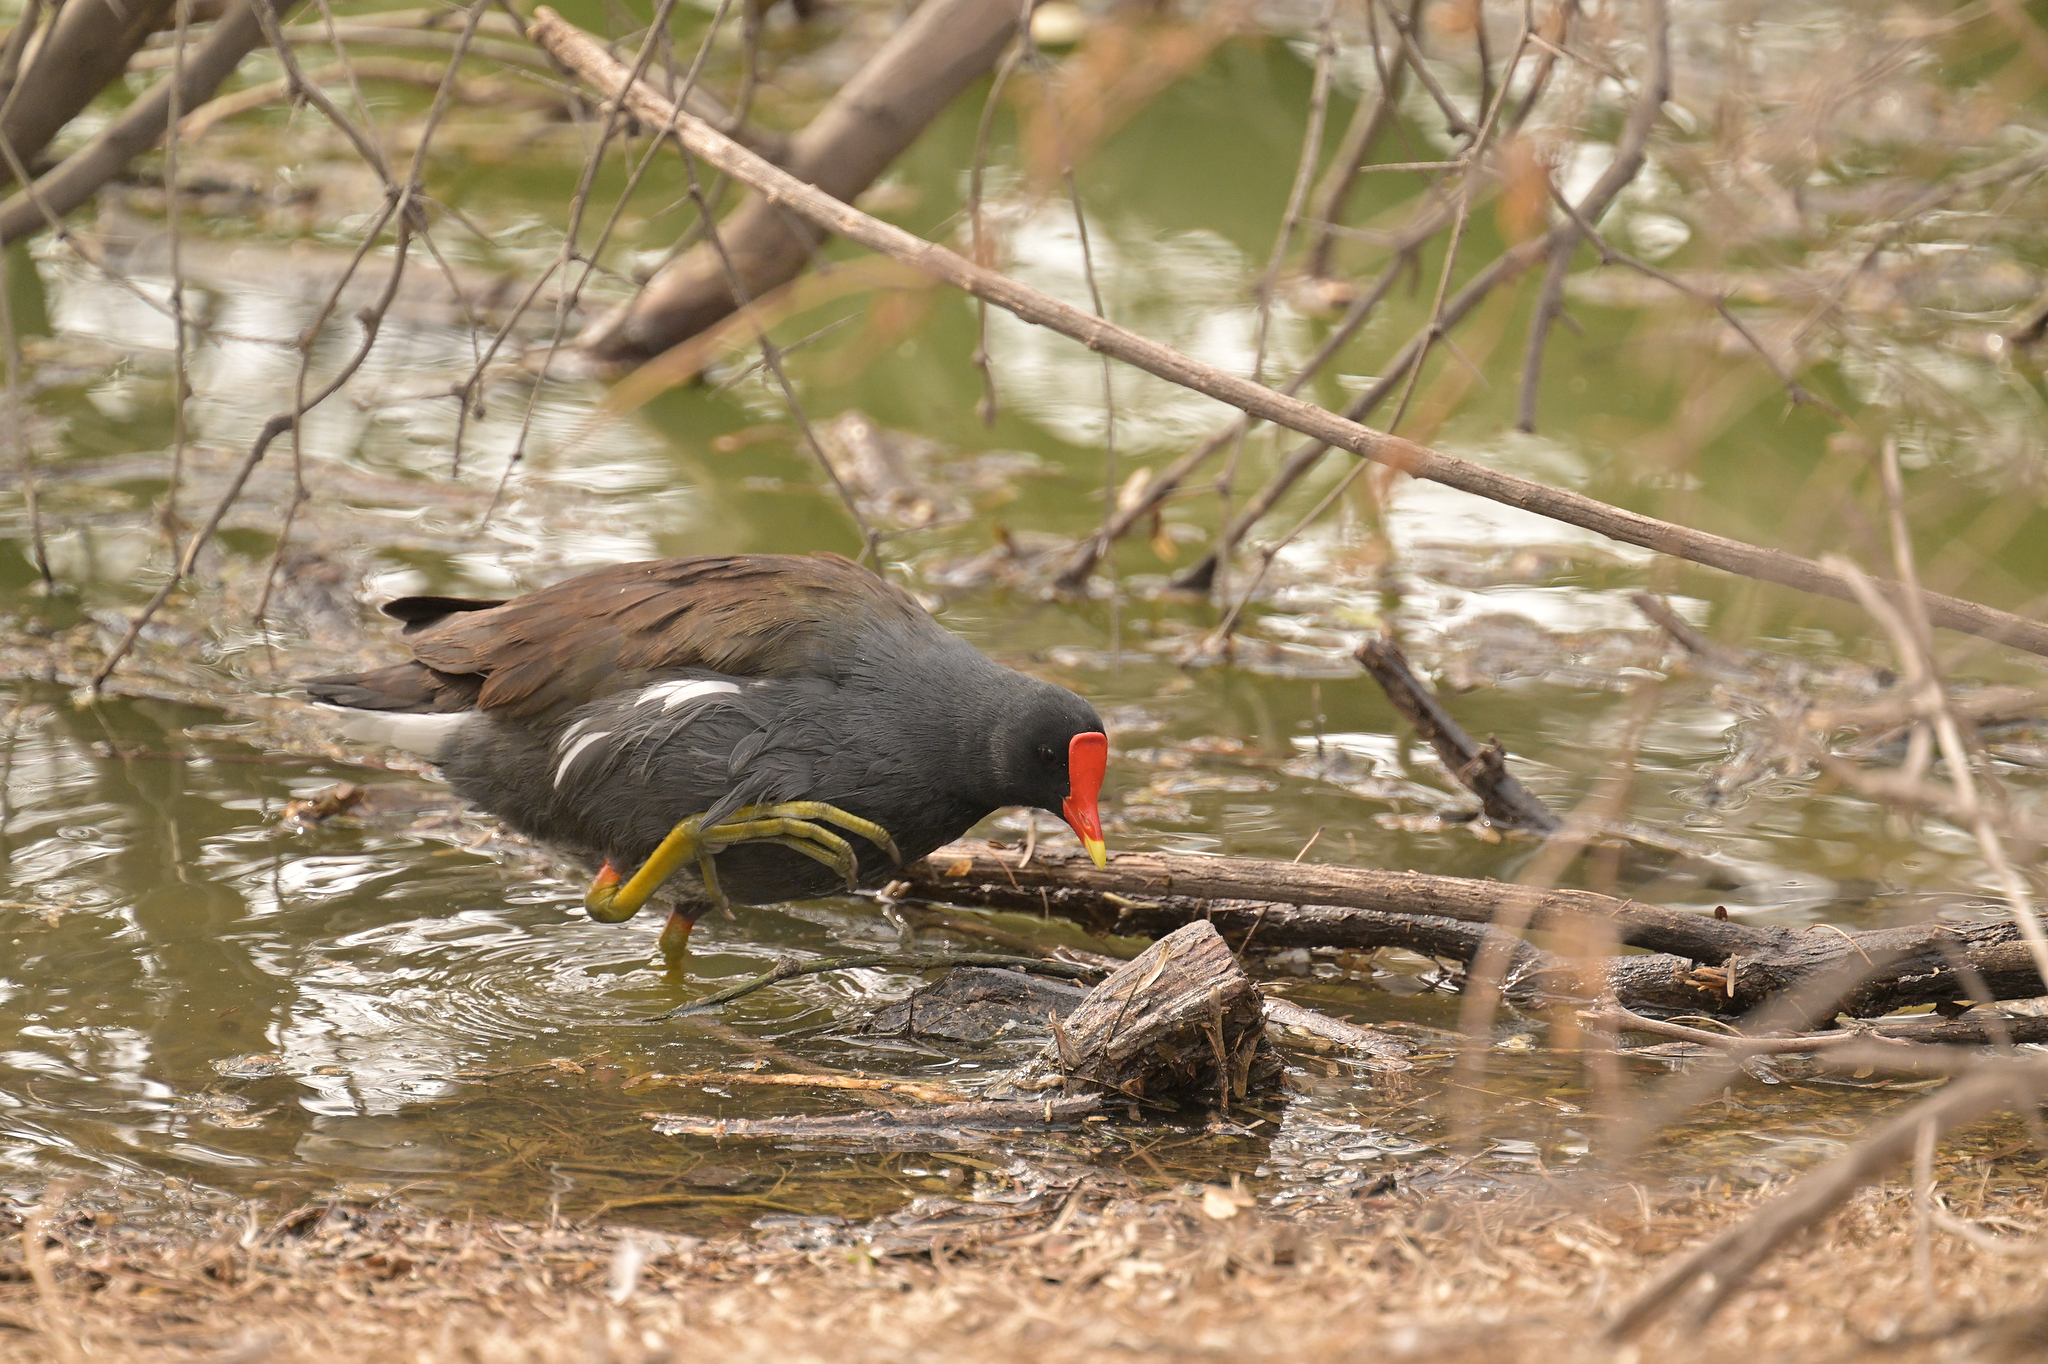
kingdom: Animalia
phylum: Chordata
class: Aves
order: Gruiformes
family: Rallidae
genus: Gallinula
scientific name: Gallinula chloropus
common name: Common moorhen
